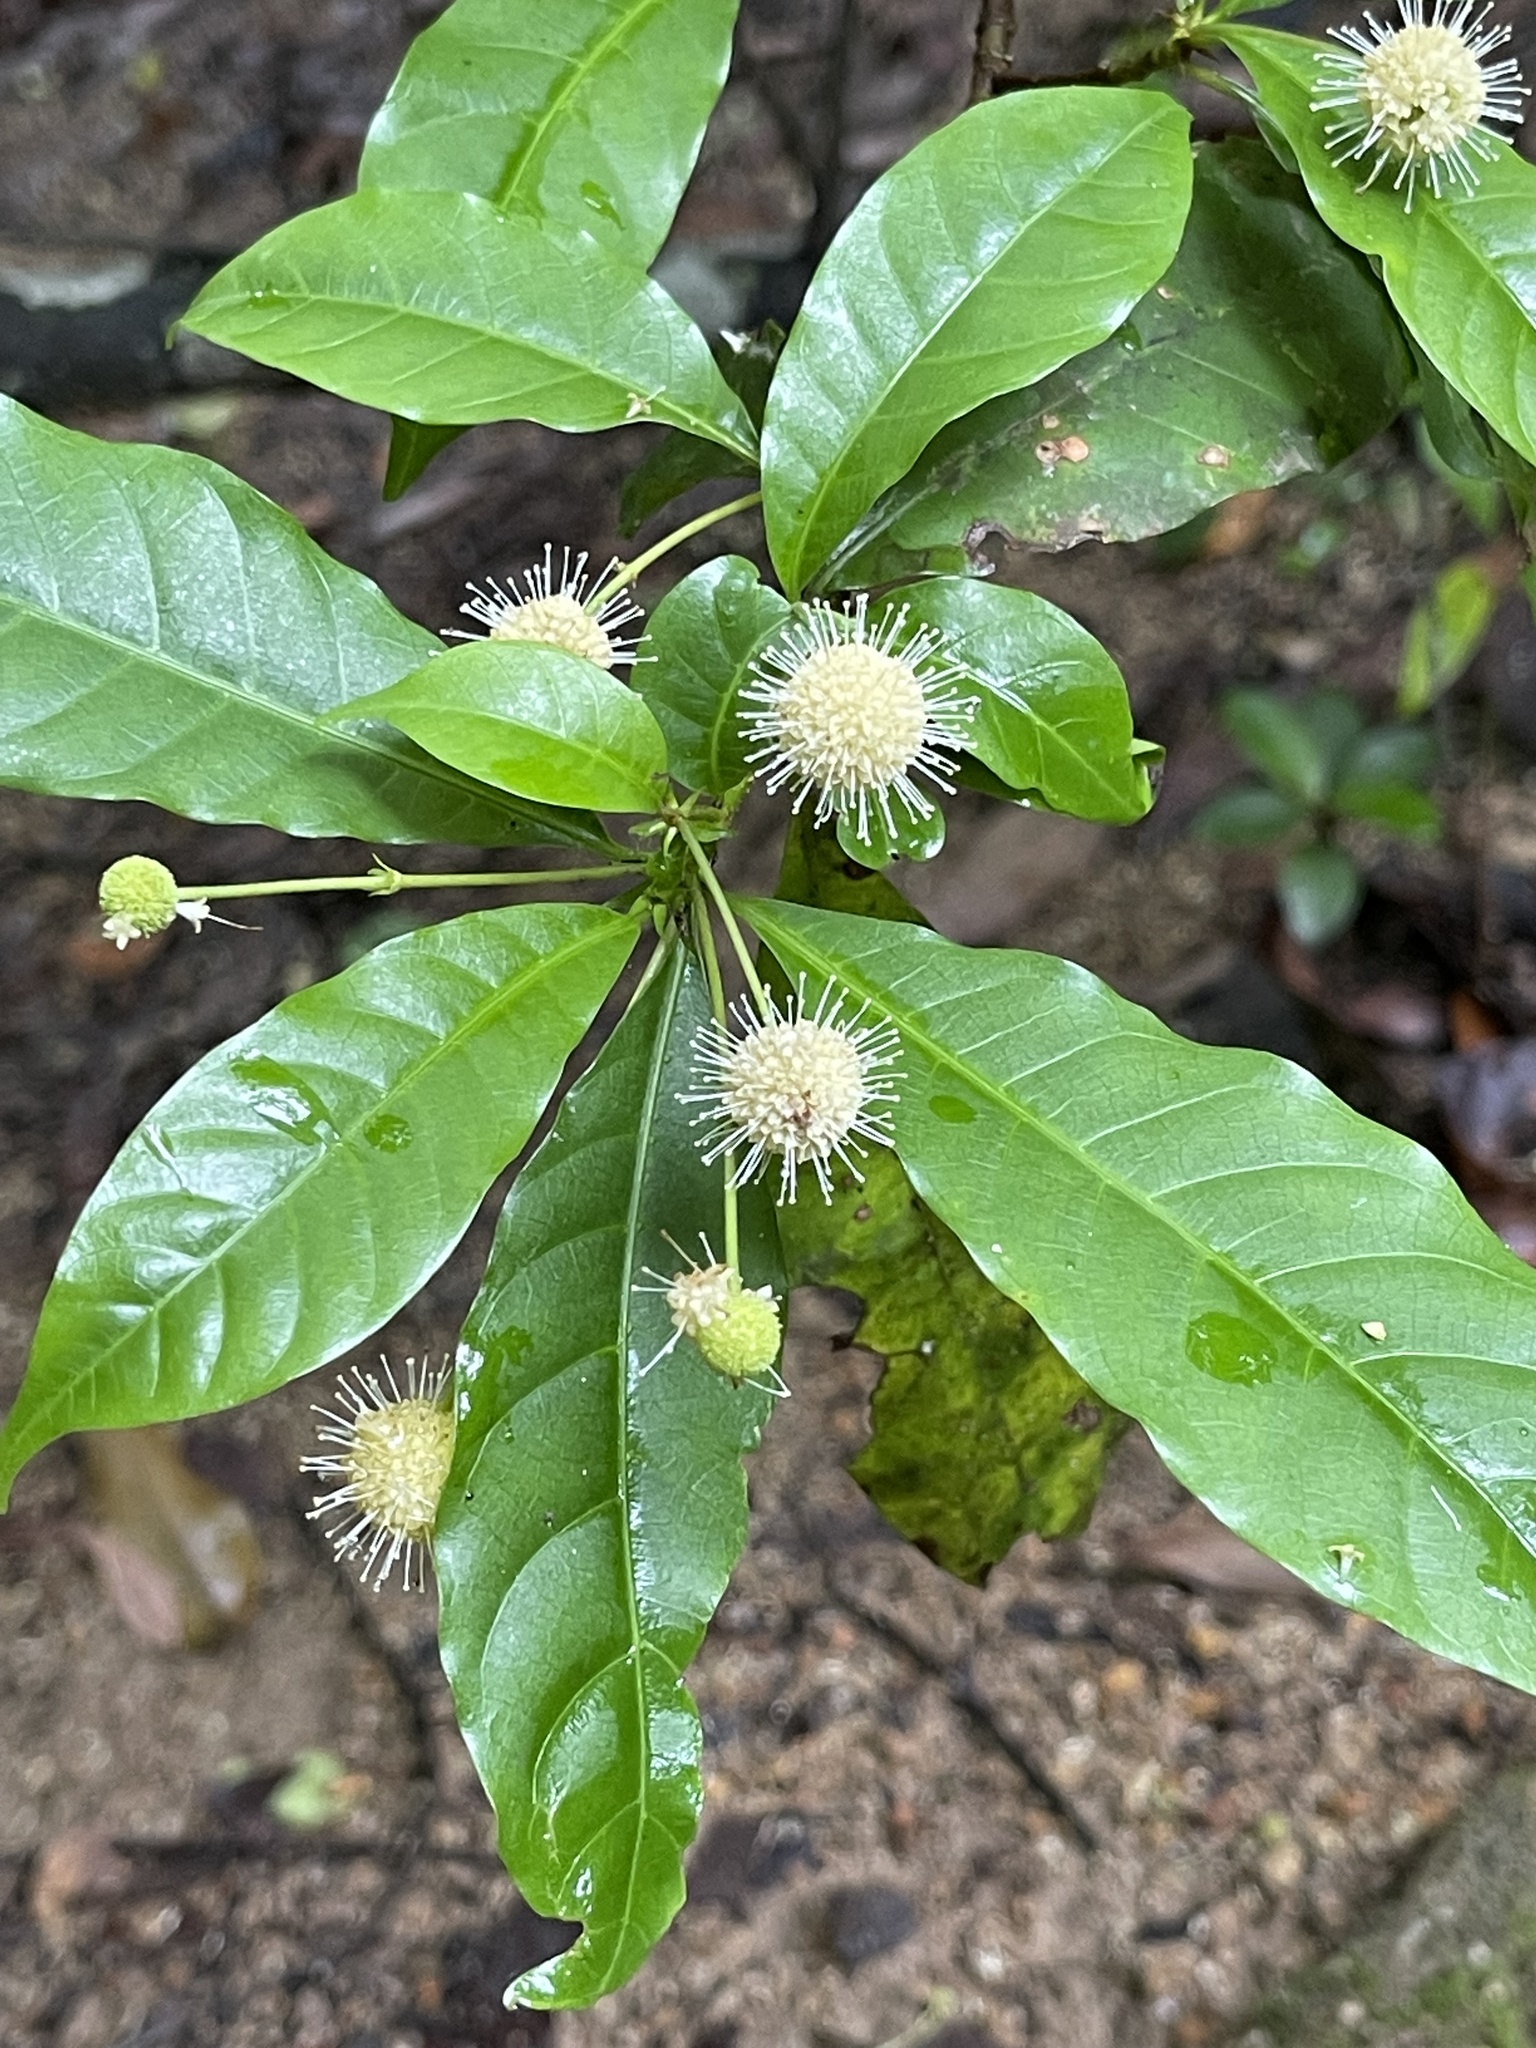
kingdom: Plantae
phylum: Tracheophyta
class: Magnoliopsida
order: Gentianales
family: Rubiaceae
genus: Adina
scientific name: Adina pilulifera
